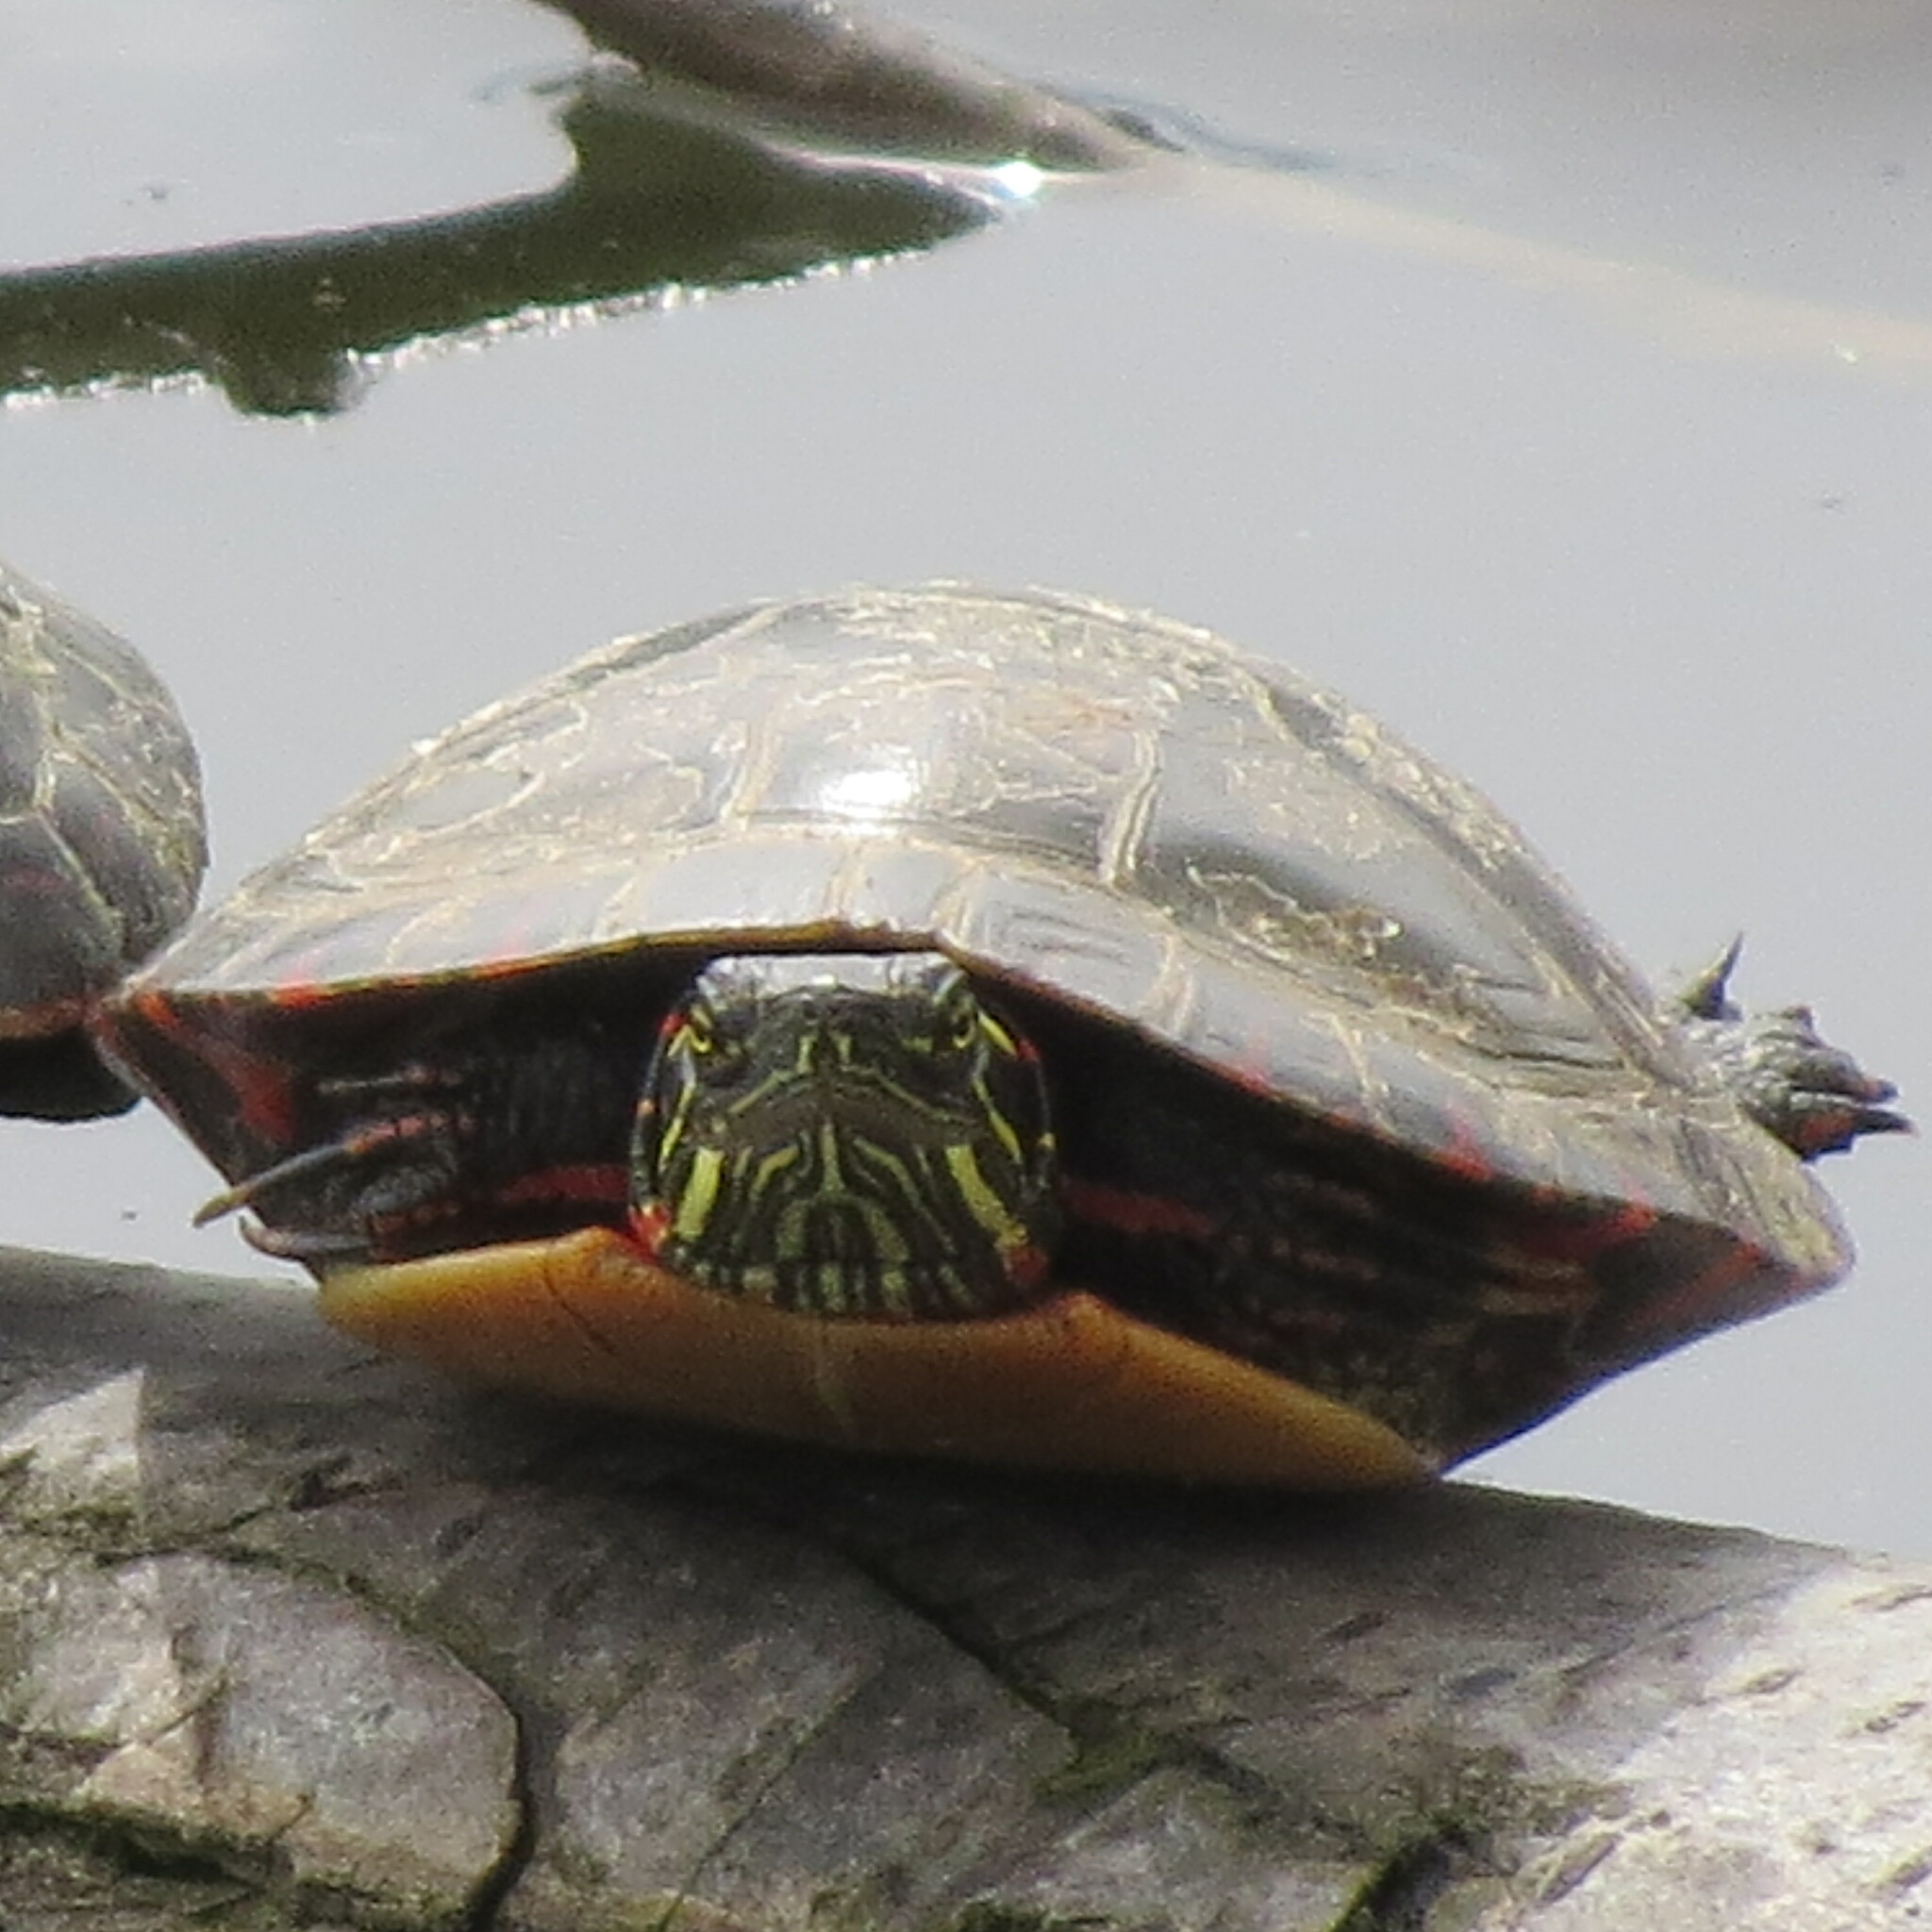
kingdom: Animalia
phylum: Chordata
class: Testudines
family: Emydidae
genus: Chrysemys
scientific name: Chrysemys picta
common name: Painted turtle
